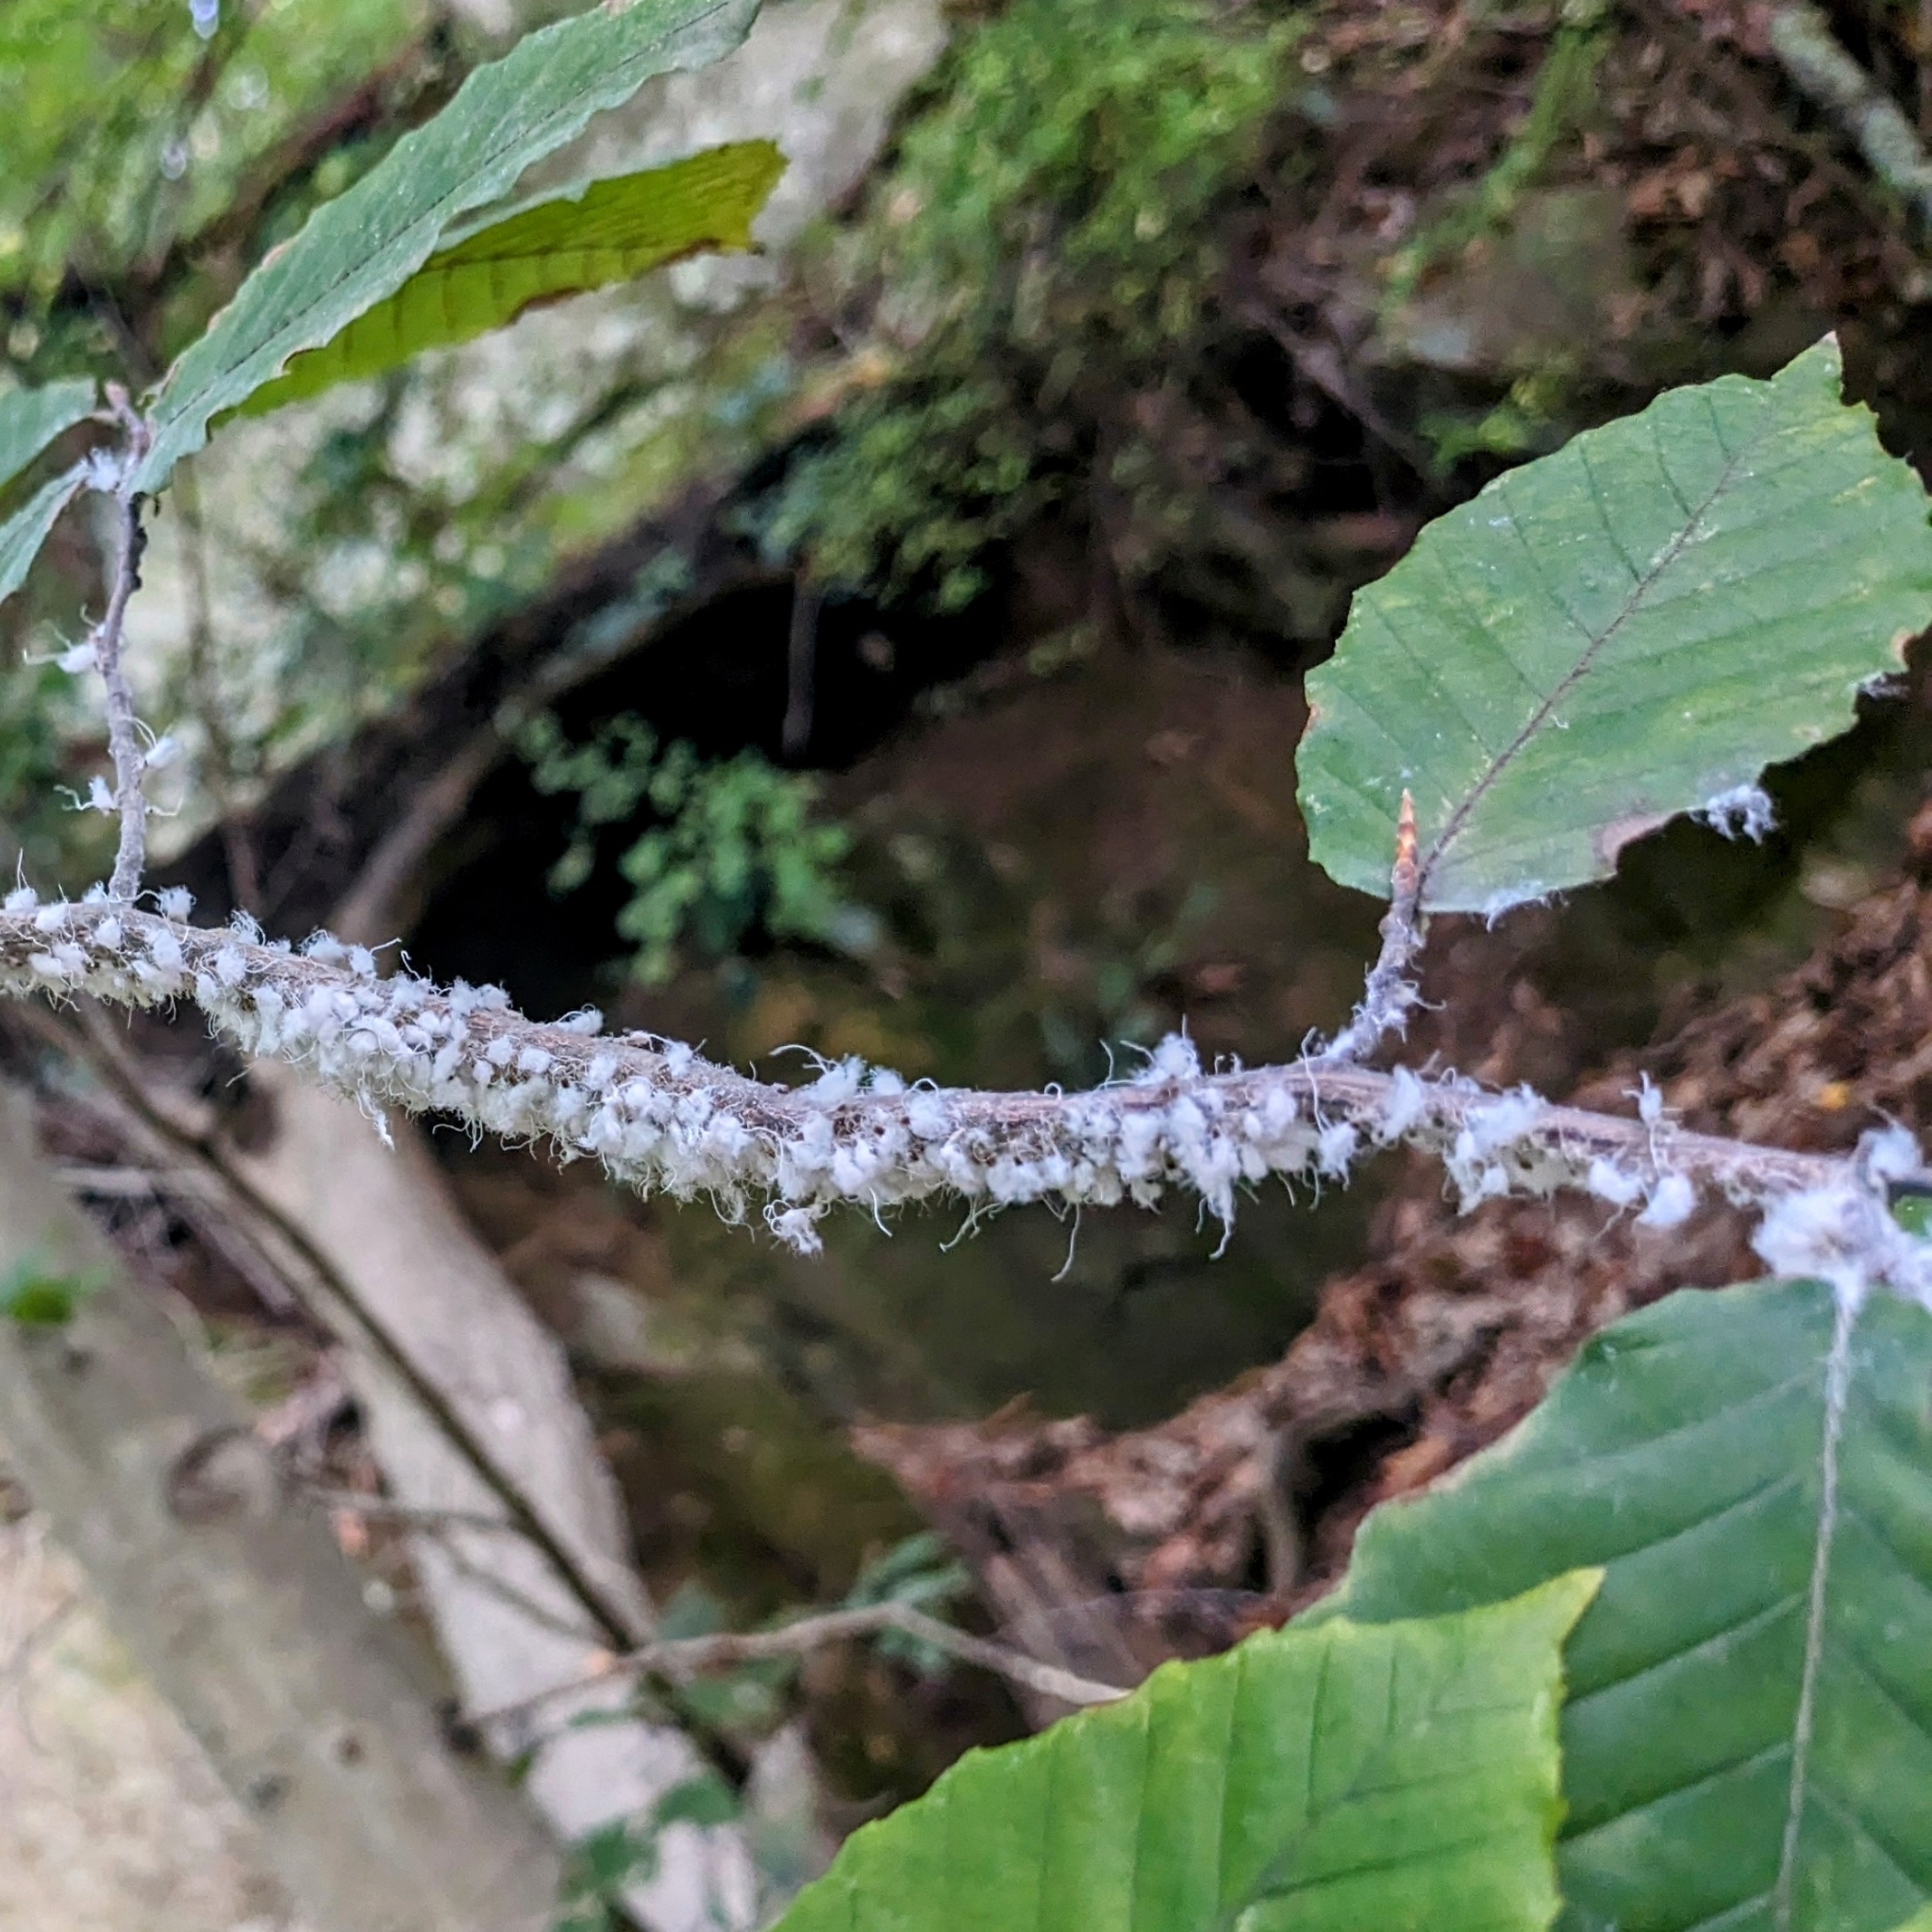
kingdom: Animalia
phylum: Arthropoda
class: Insecta
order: Hemiptera
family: Aphididae
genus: Grylloprociphilus
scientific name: Grylloprociphilus imbricator
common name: Beech blight aphid
